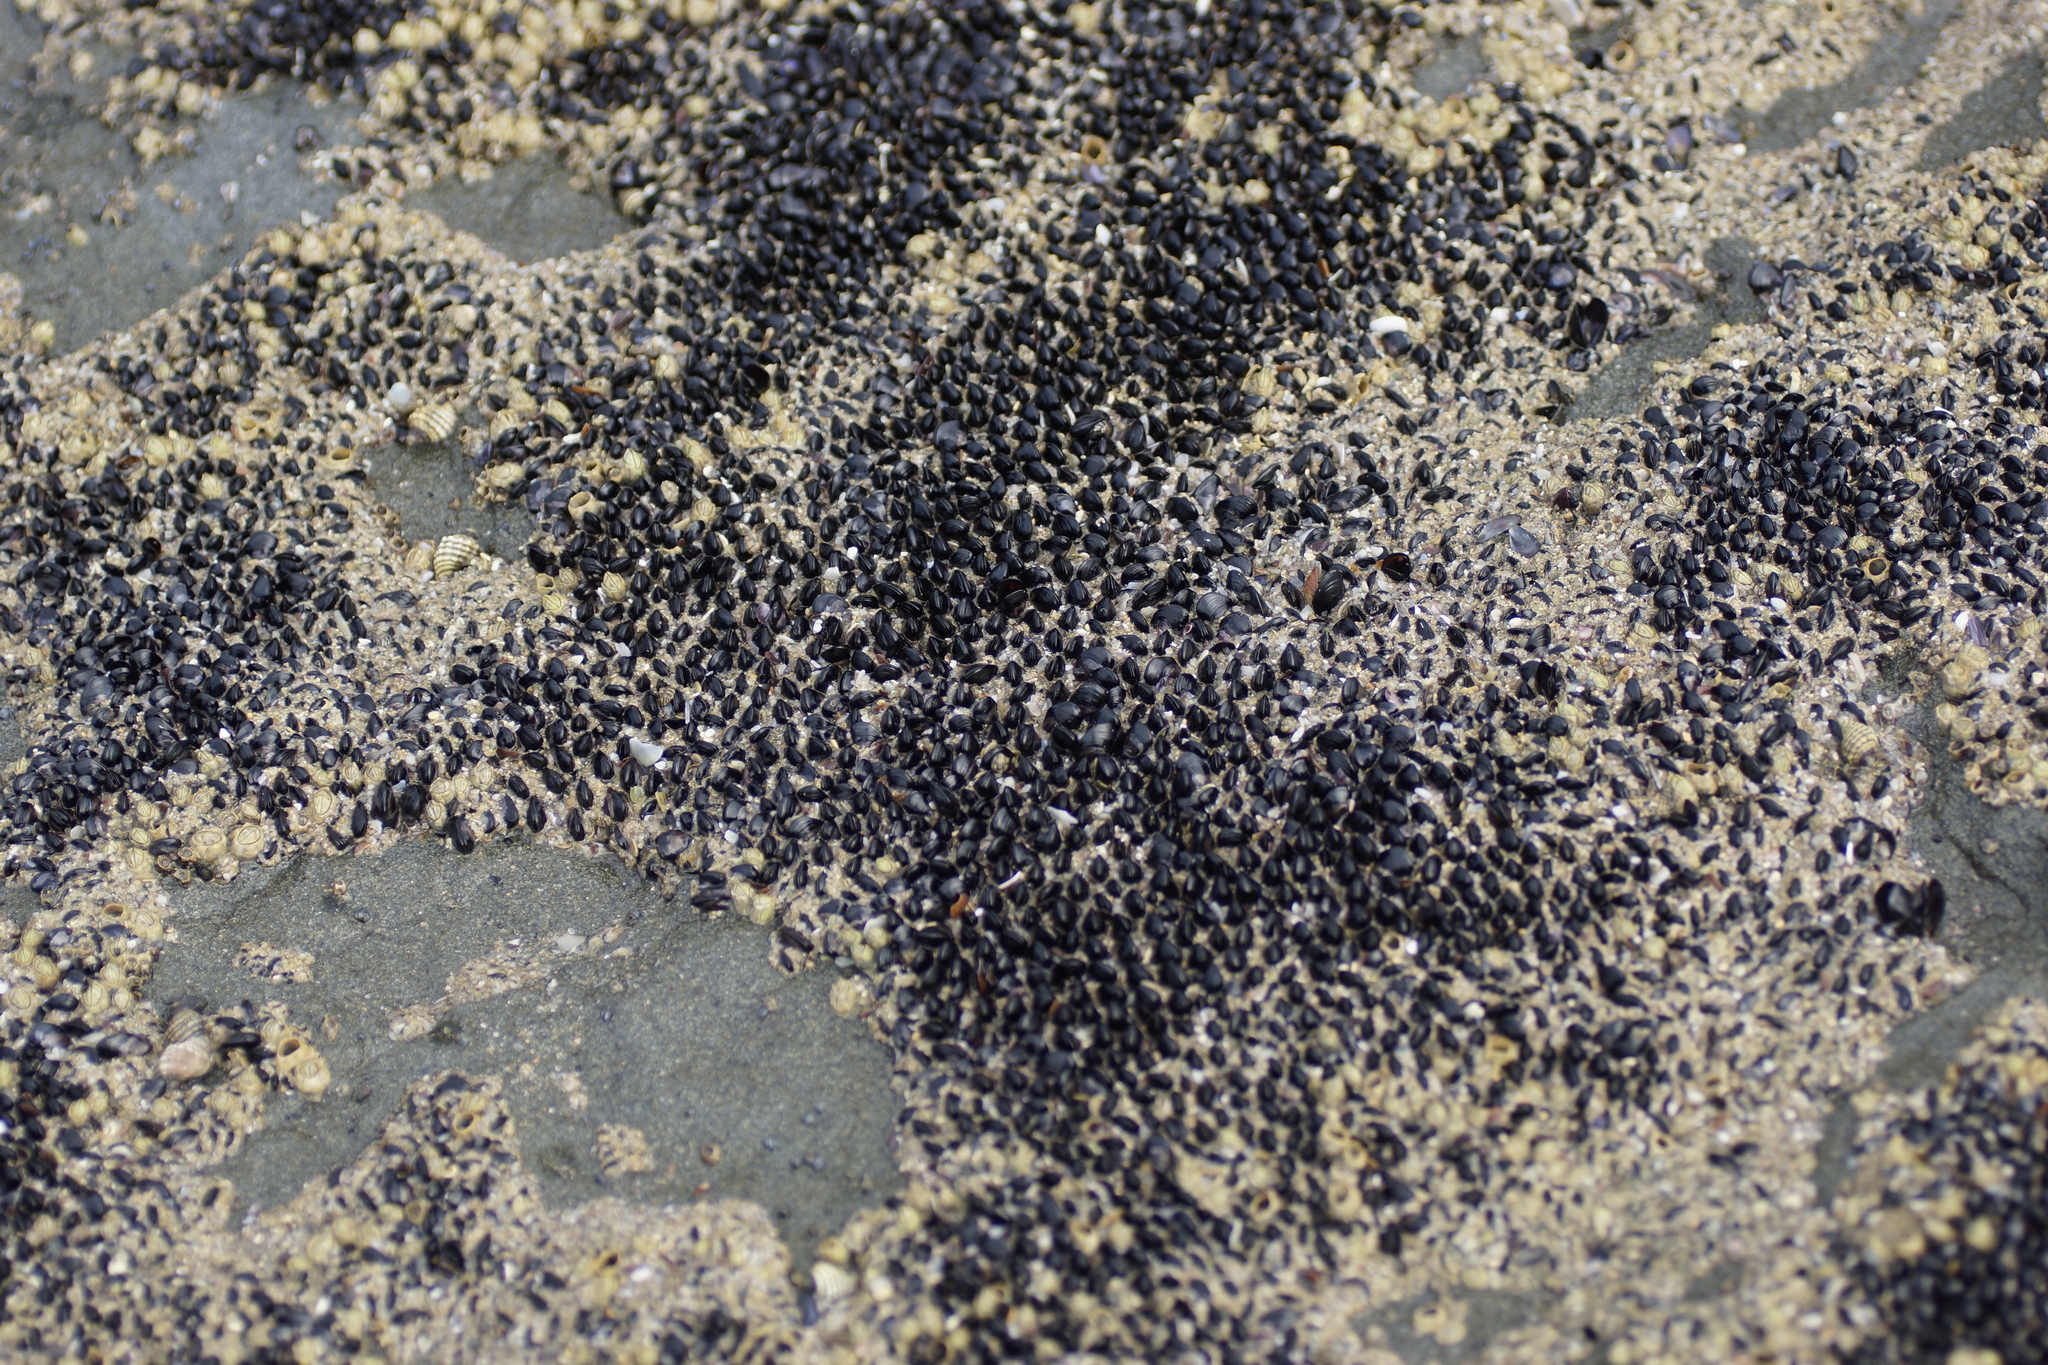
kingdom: Animalia
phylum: Mollusca
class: Bivalvia
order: Mytilida
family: Mytilidae
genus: Xenostrobus
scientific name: Xenostrobus pulex
